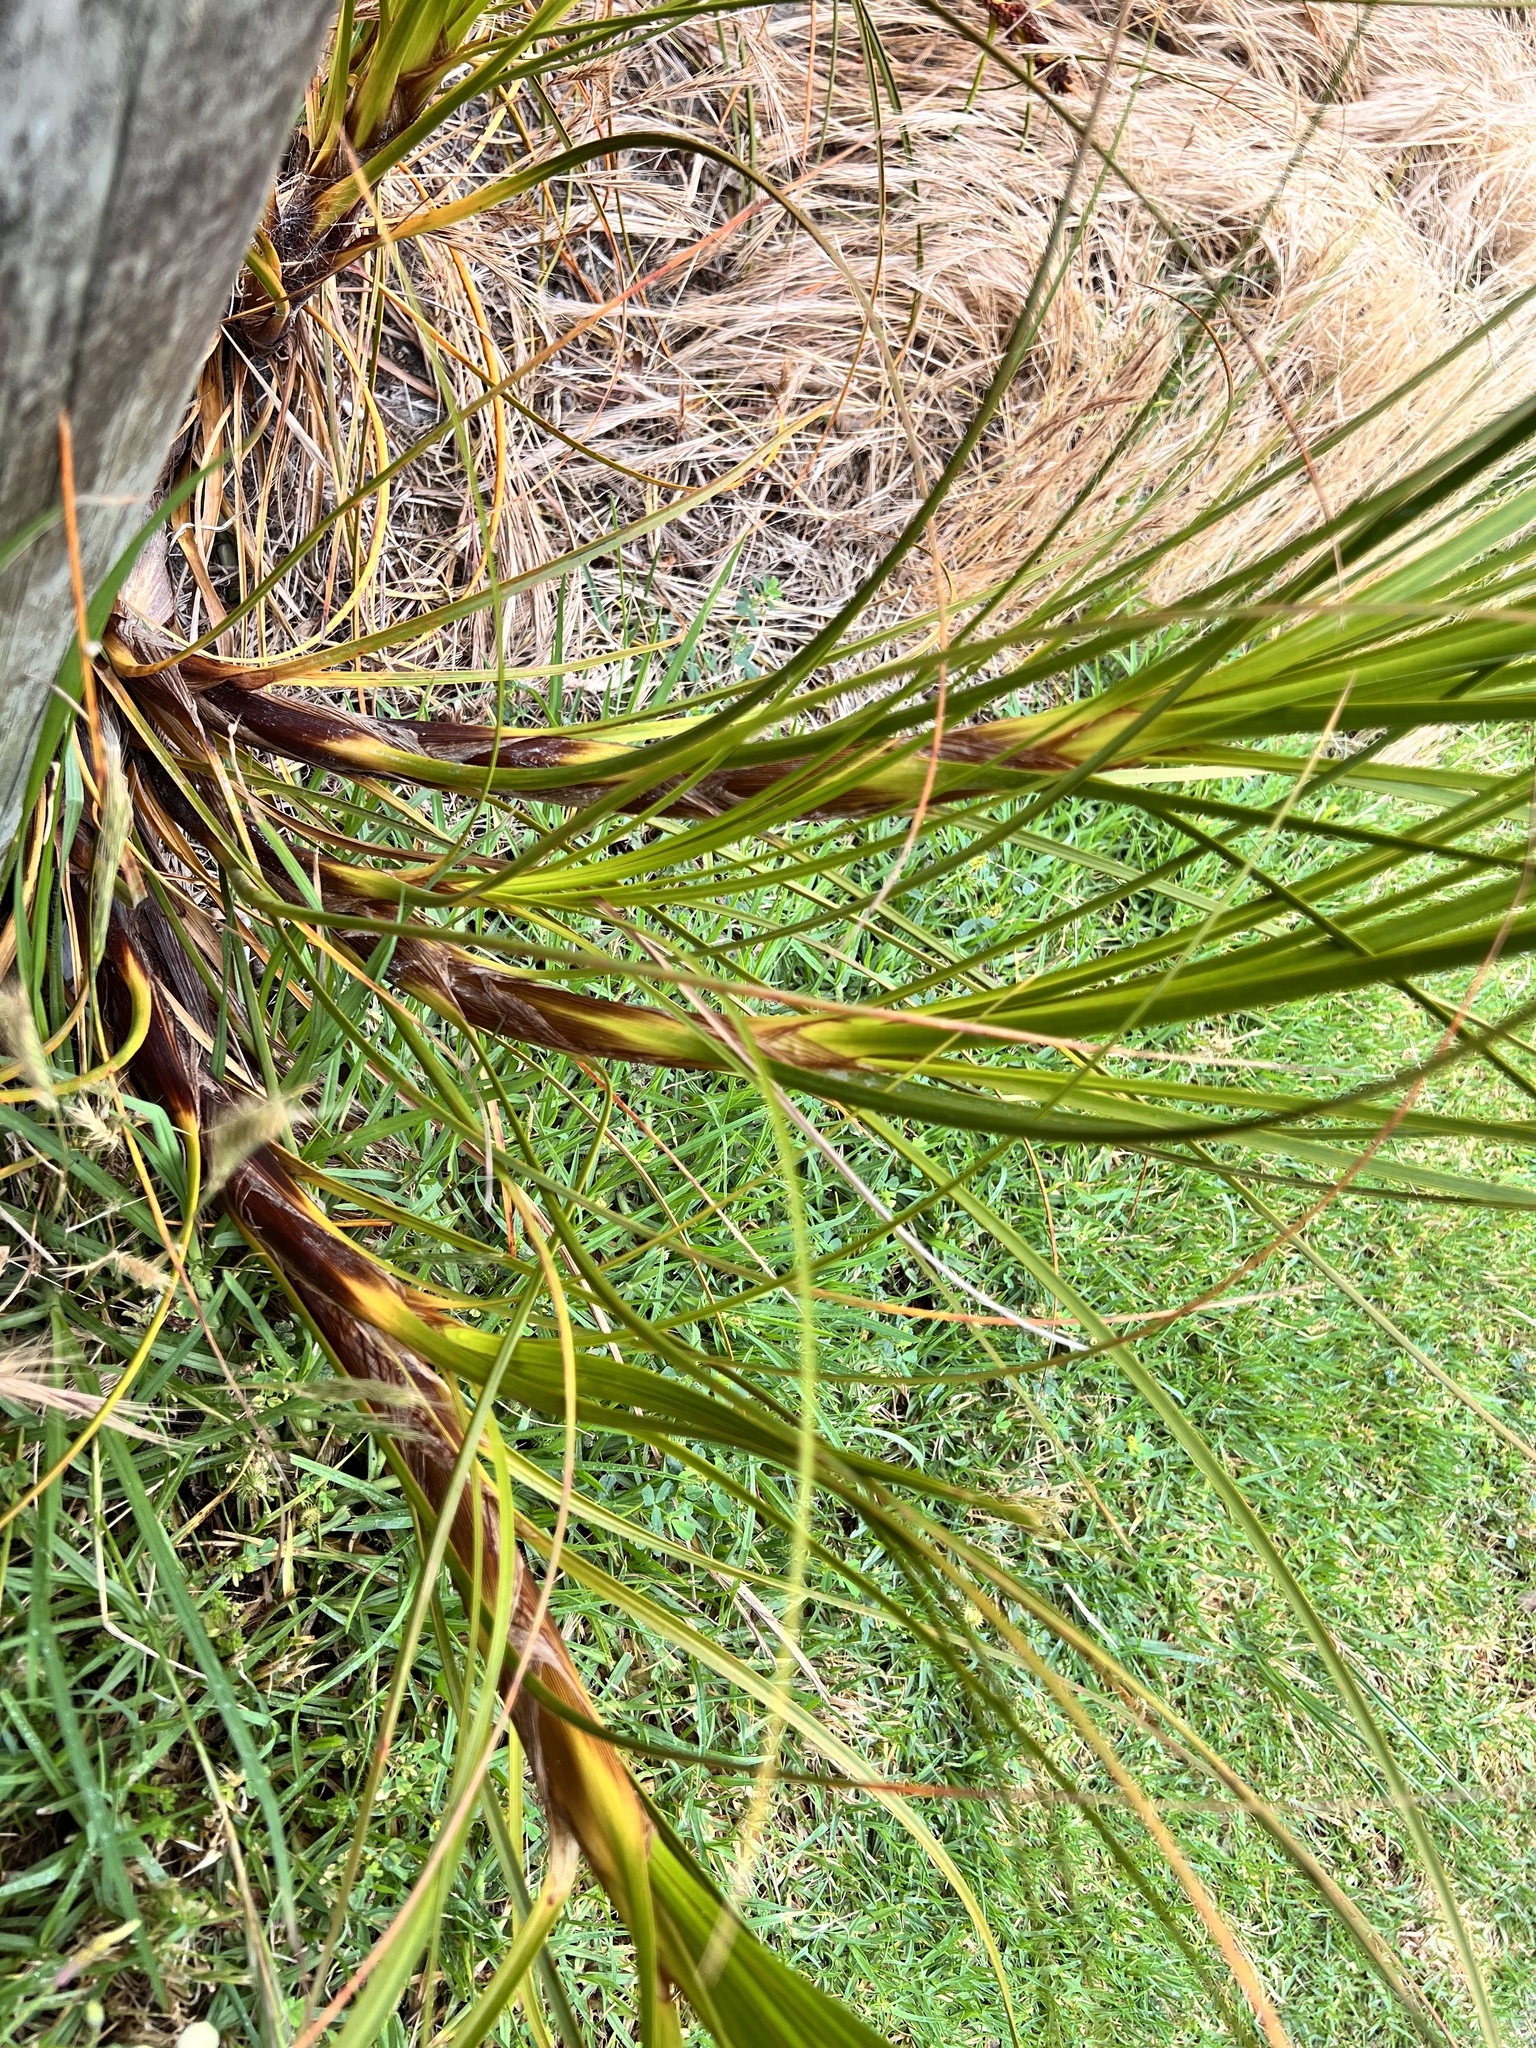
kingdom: Plantae
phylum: Tracheophyta
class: Liliopsida
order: Poales
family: Cyperaceae
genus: Ficinia
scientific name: Ficinia spiralis
